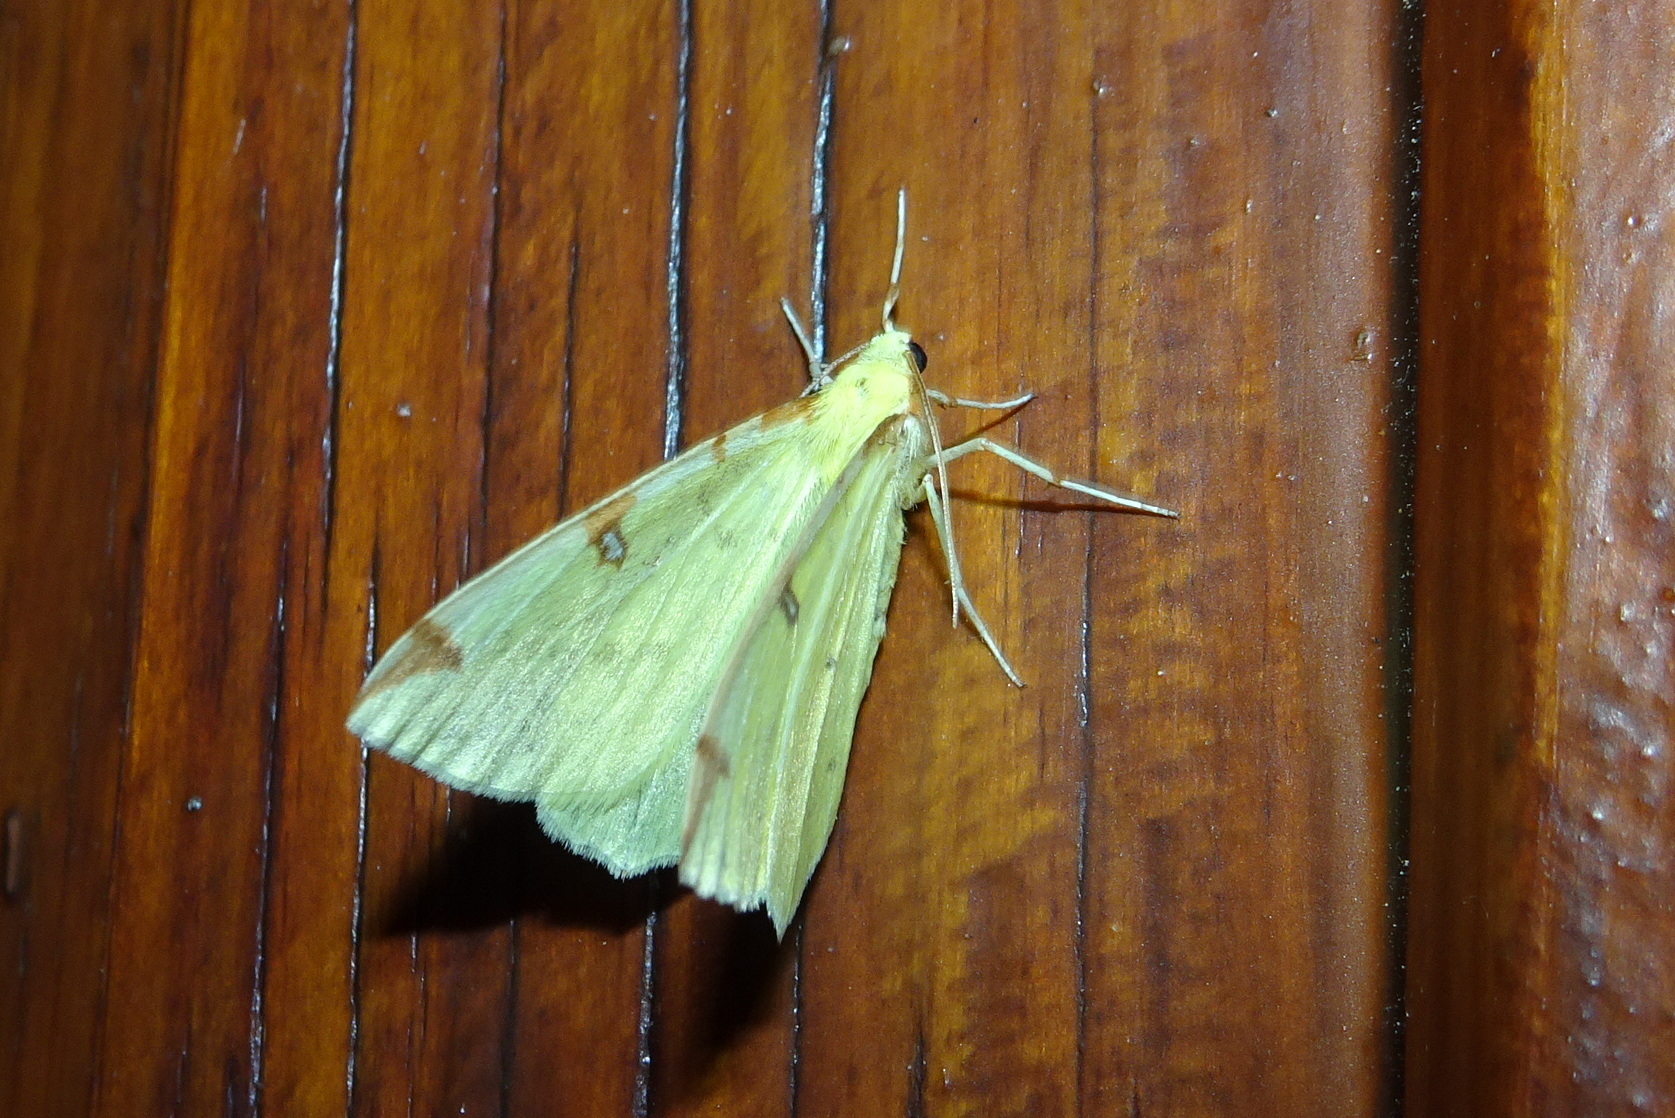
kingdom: Animalia
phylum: Arthropoda
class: Insecta
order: Lepidoptera
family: Geometridae
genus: Opisthograptis
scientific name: Opisthograptis luteolata
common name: Brimstone moth
